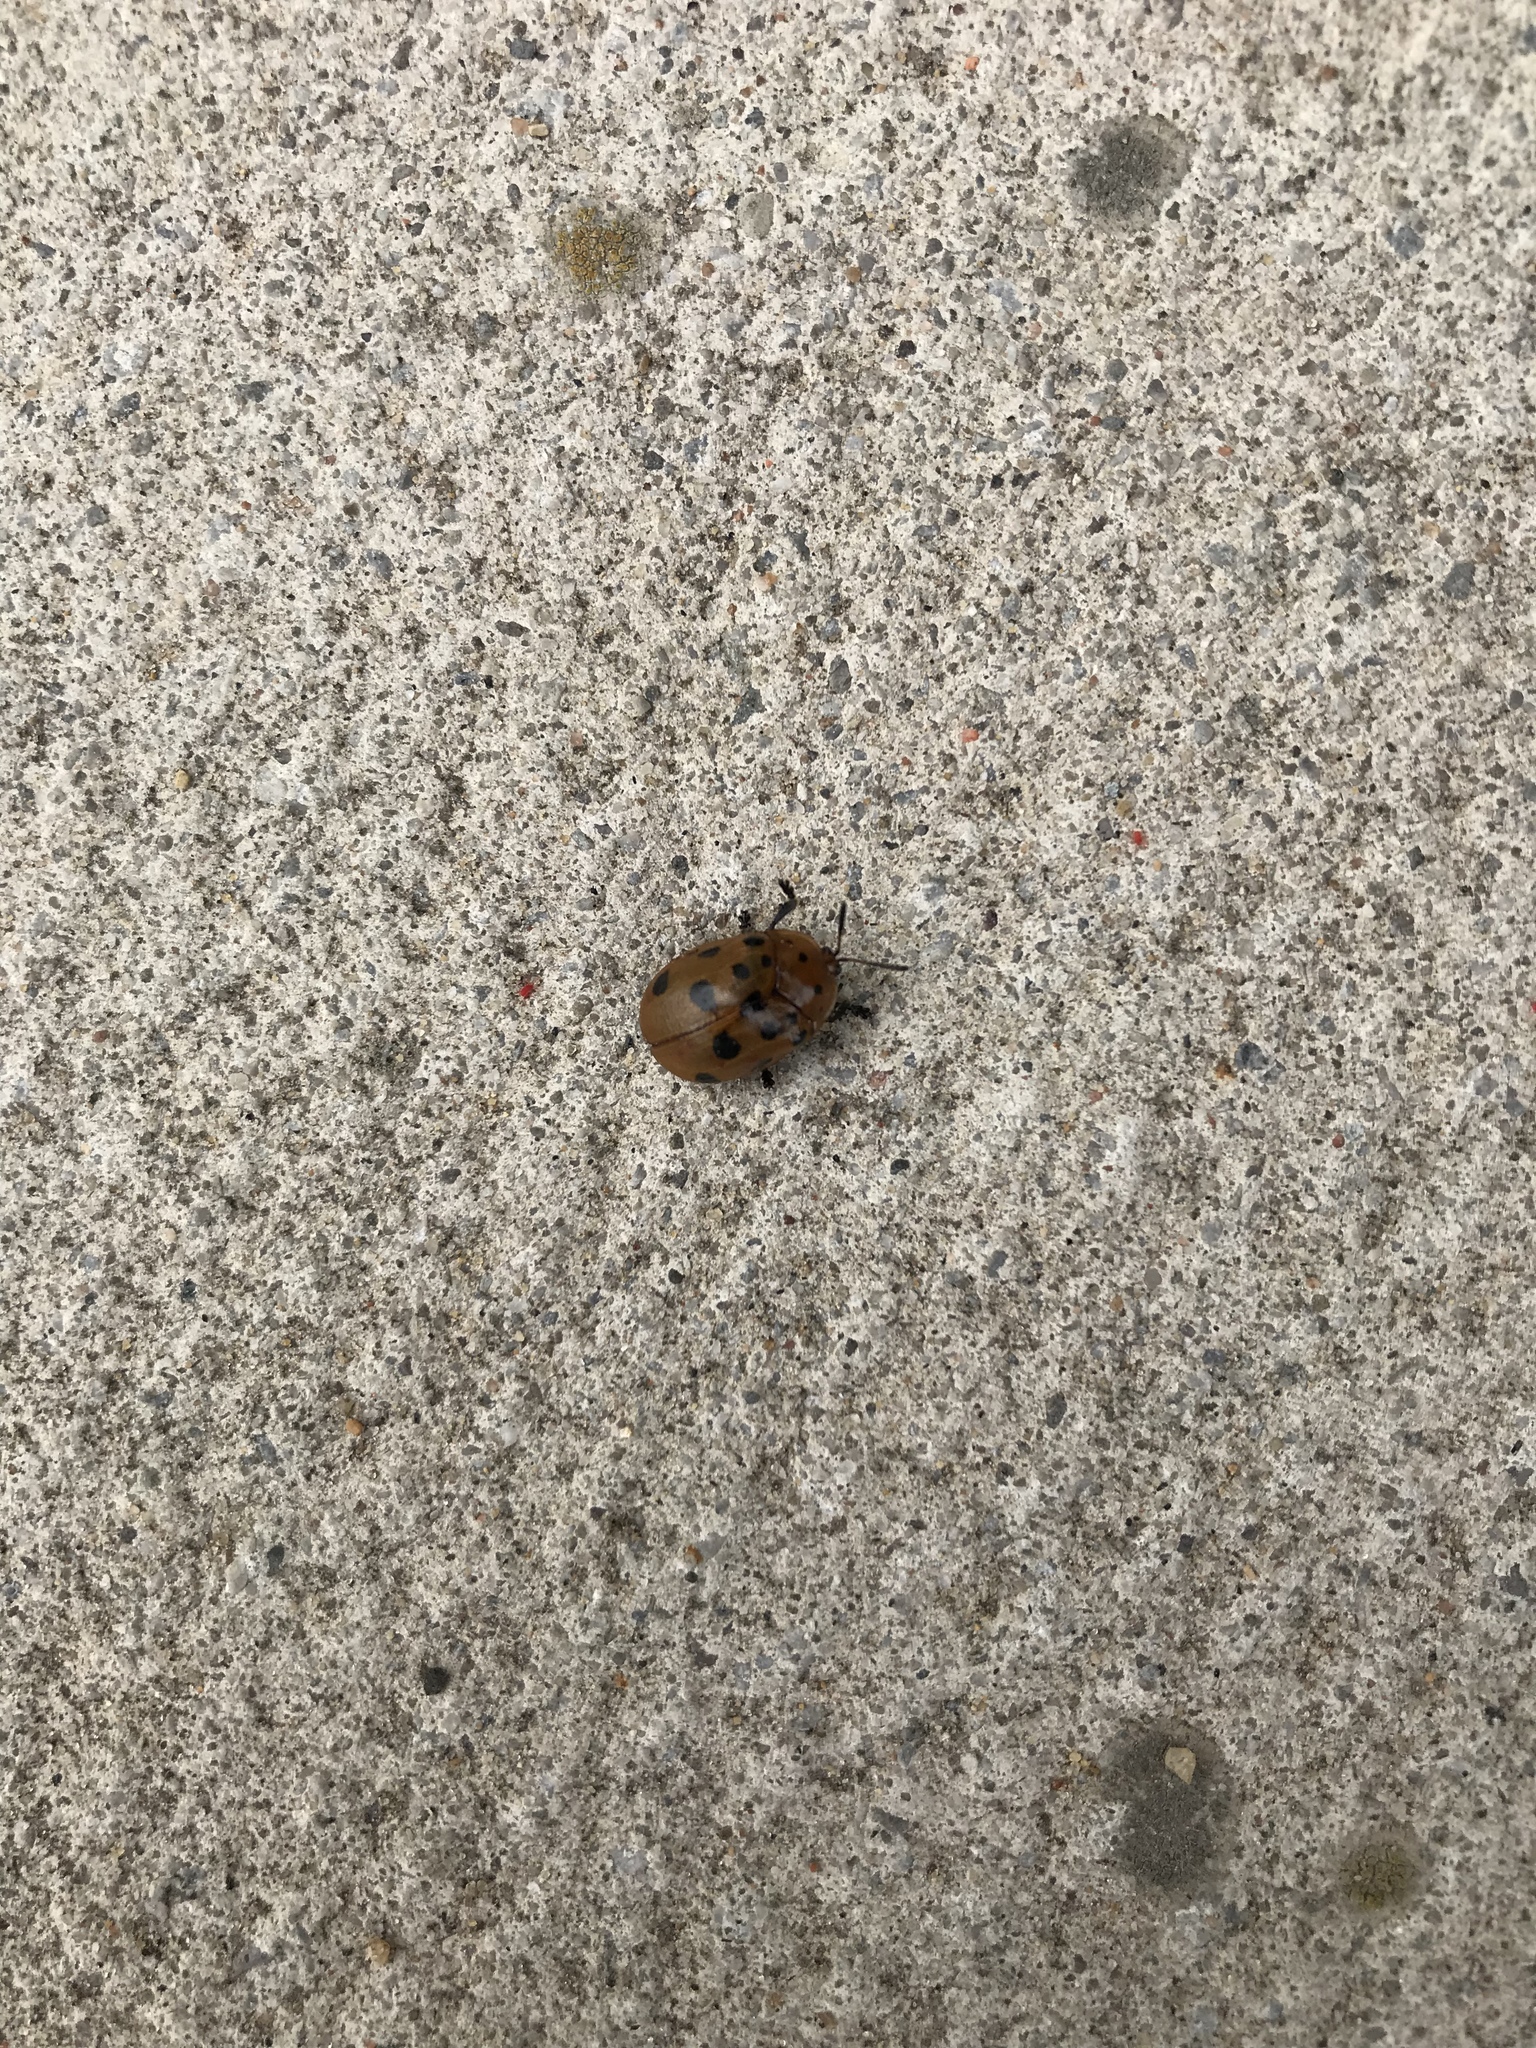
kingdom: Animalia
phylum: Arthropoda
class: Insecta
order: Coleoptera
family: Chrysomelidae
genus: Chelymorpha
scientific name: Chelymorpha cassidea
